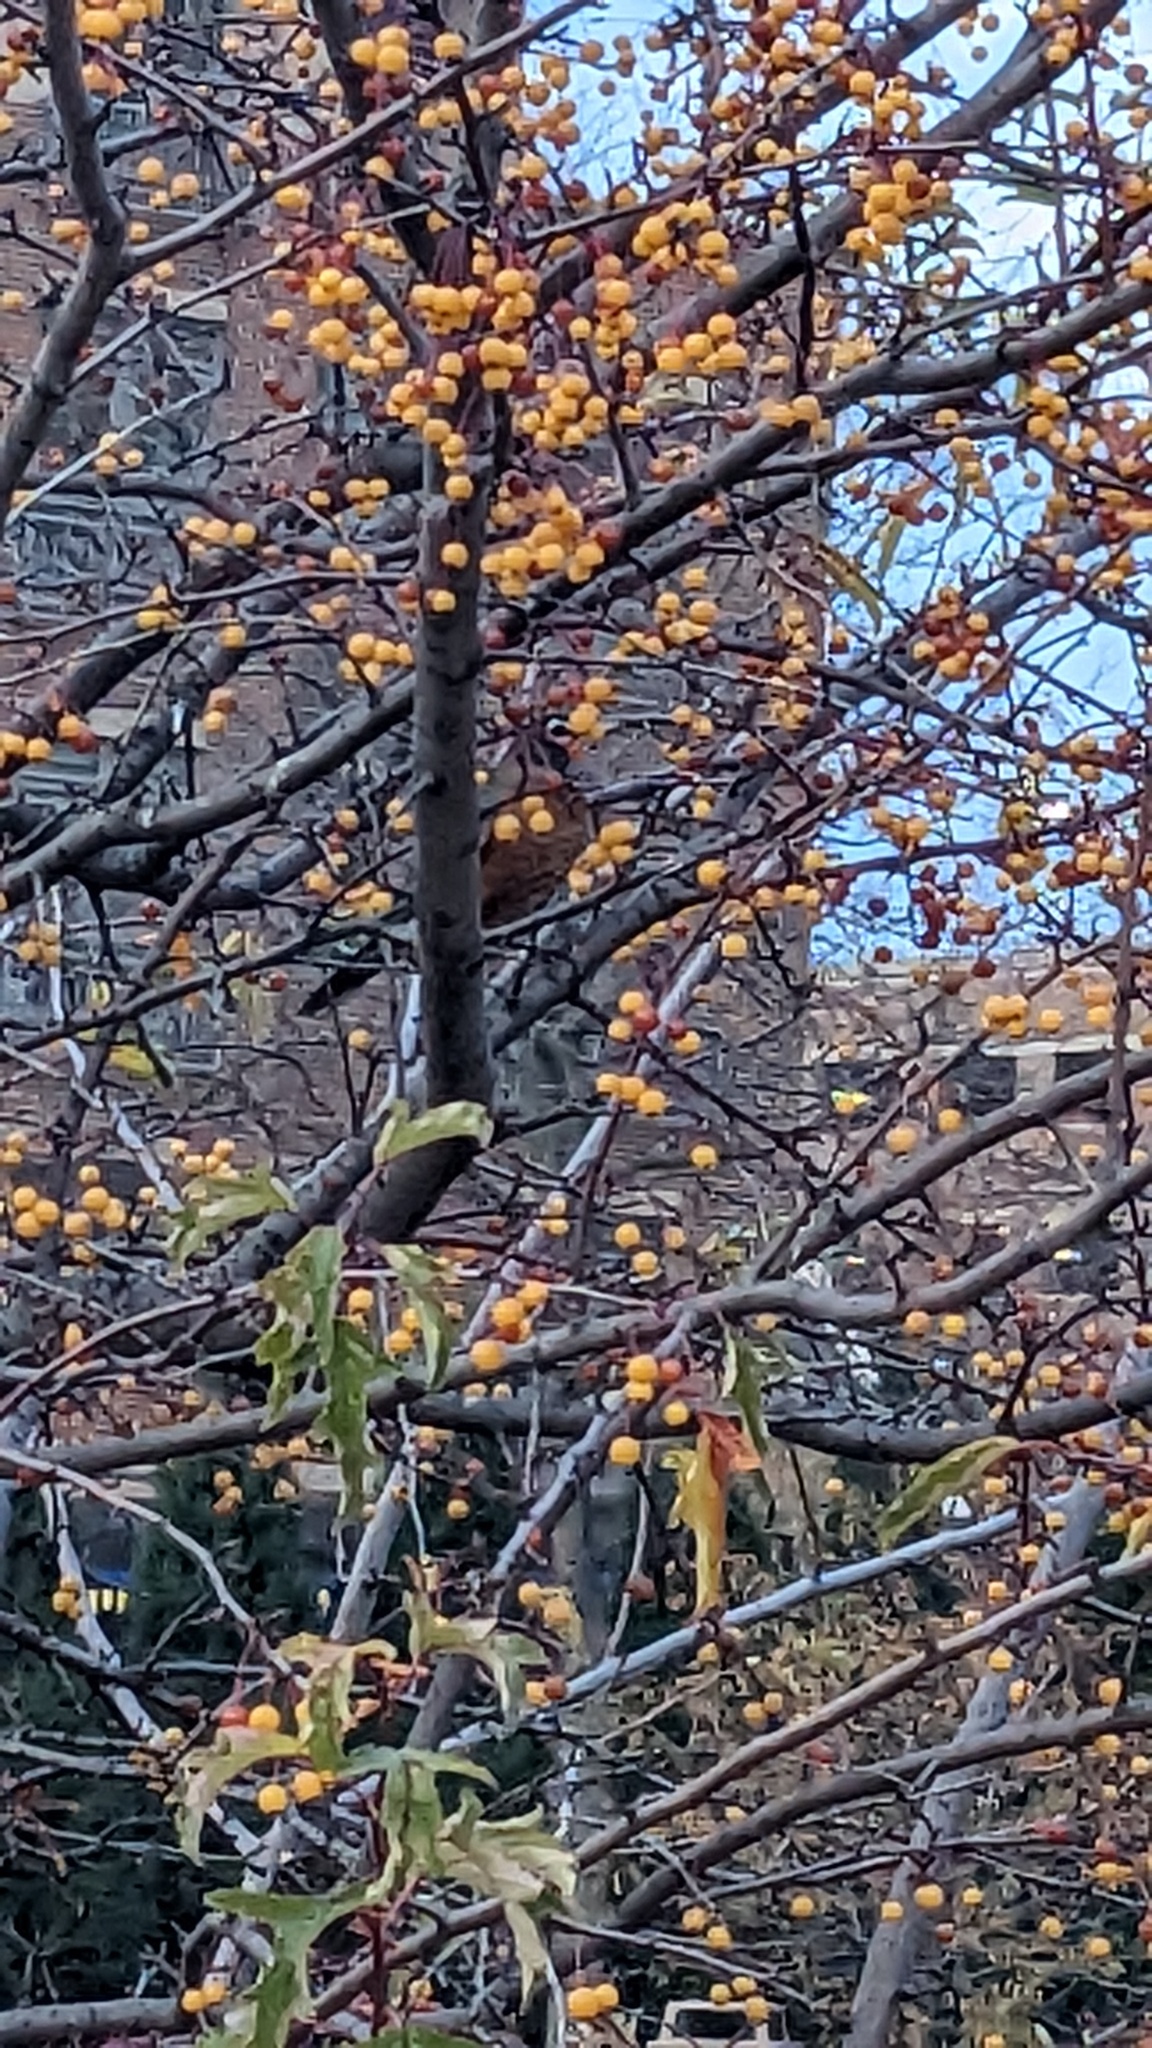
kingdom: Animalia
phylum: Chordata
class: Aves
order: Passeriformes
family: Turdidae
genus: Turdus
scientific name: Turdus migratorius
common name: American robin
